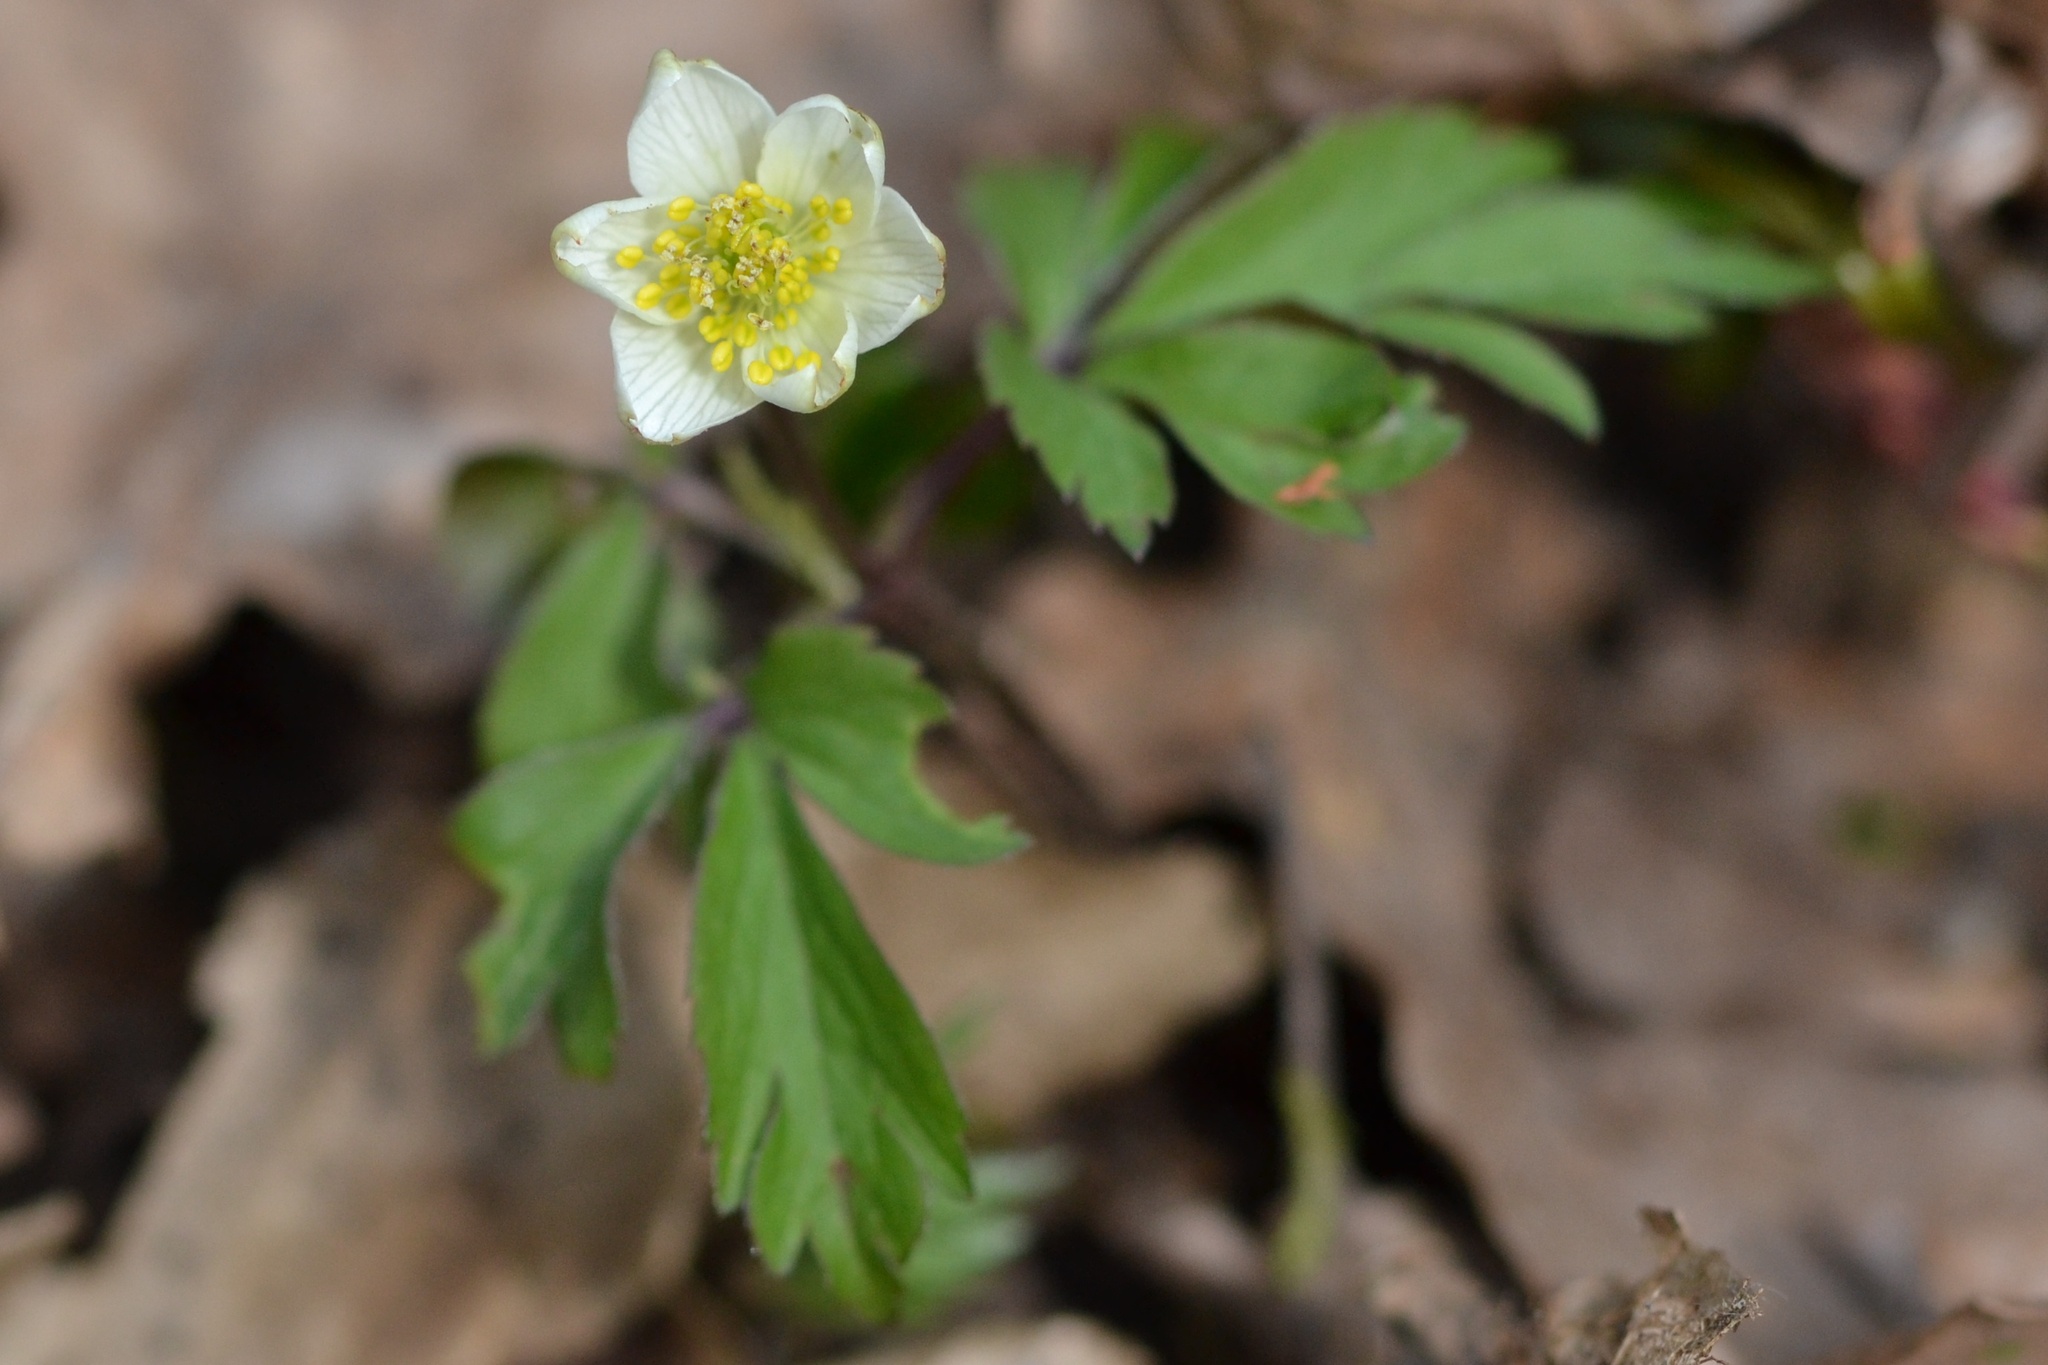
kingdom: Plantae
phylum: Tracheophyta
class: Magnoliopsida
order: Ranunculales
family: Ranunculaceae
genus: Anemone
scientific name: Anemone nemorosa
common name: Wood anemone
